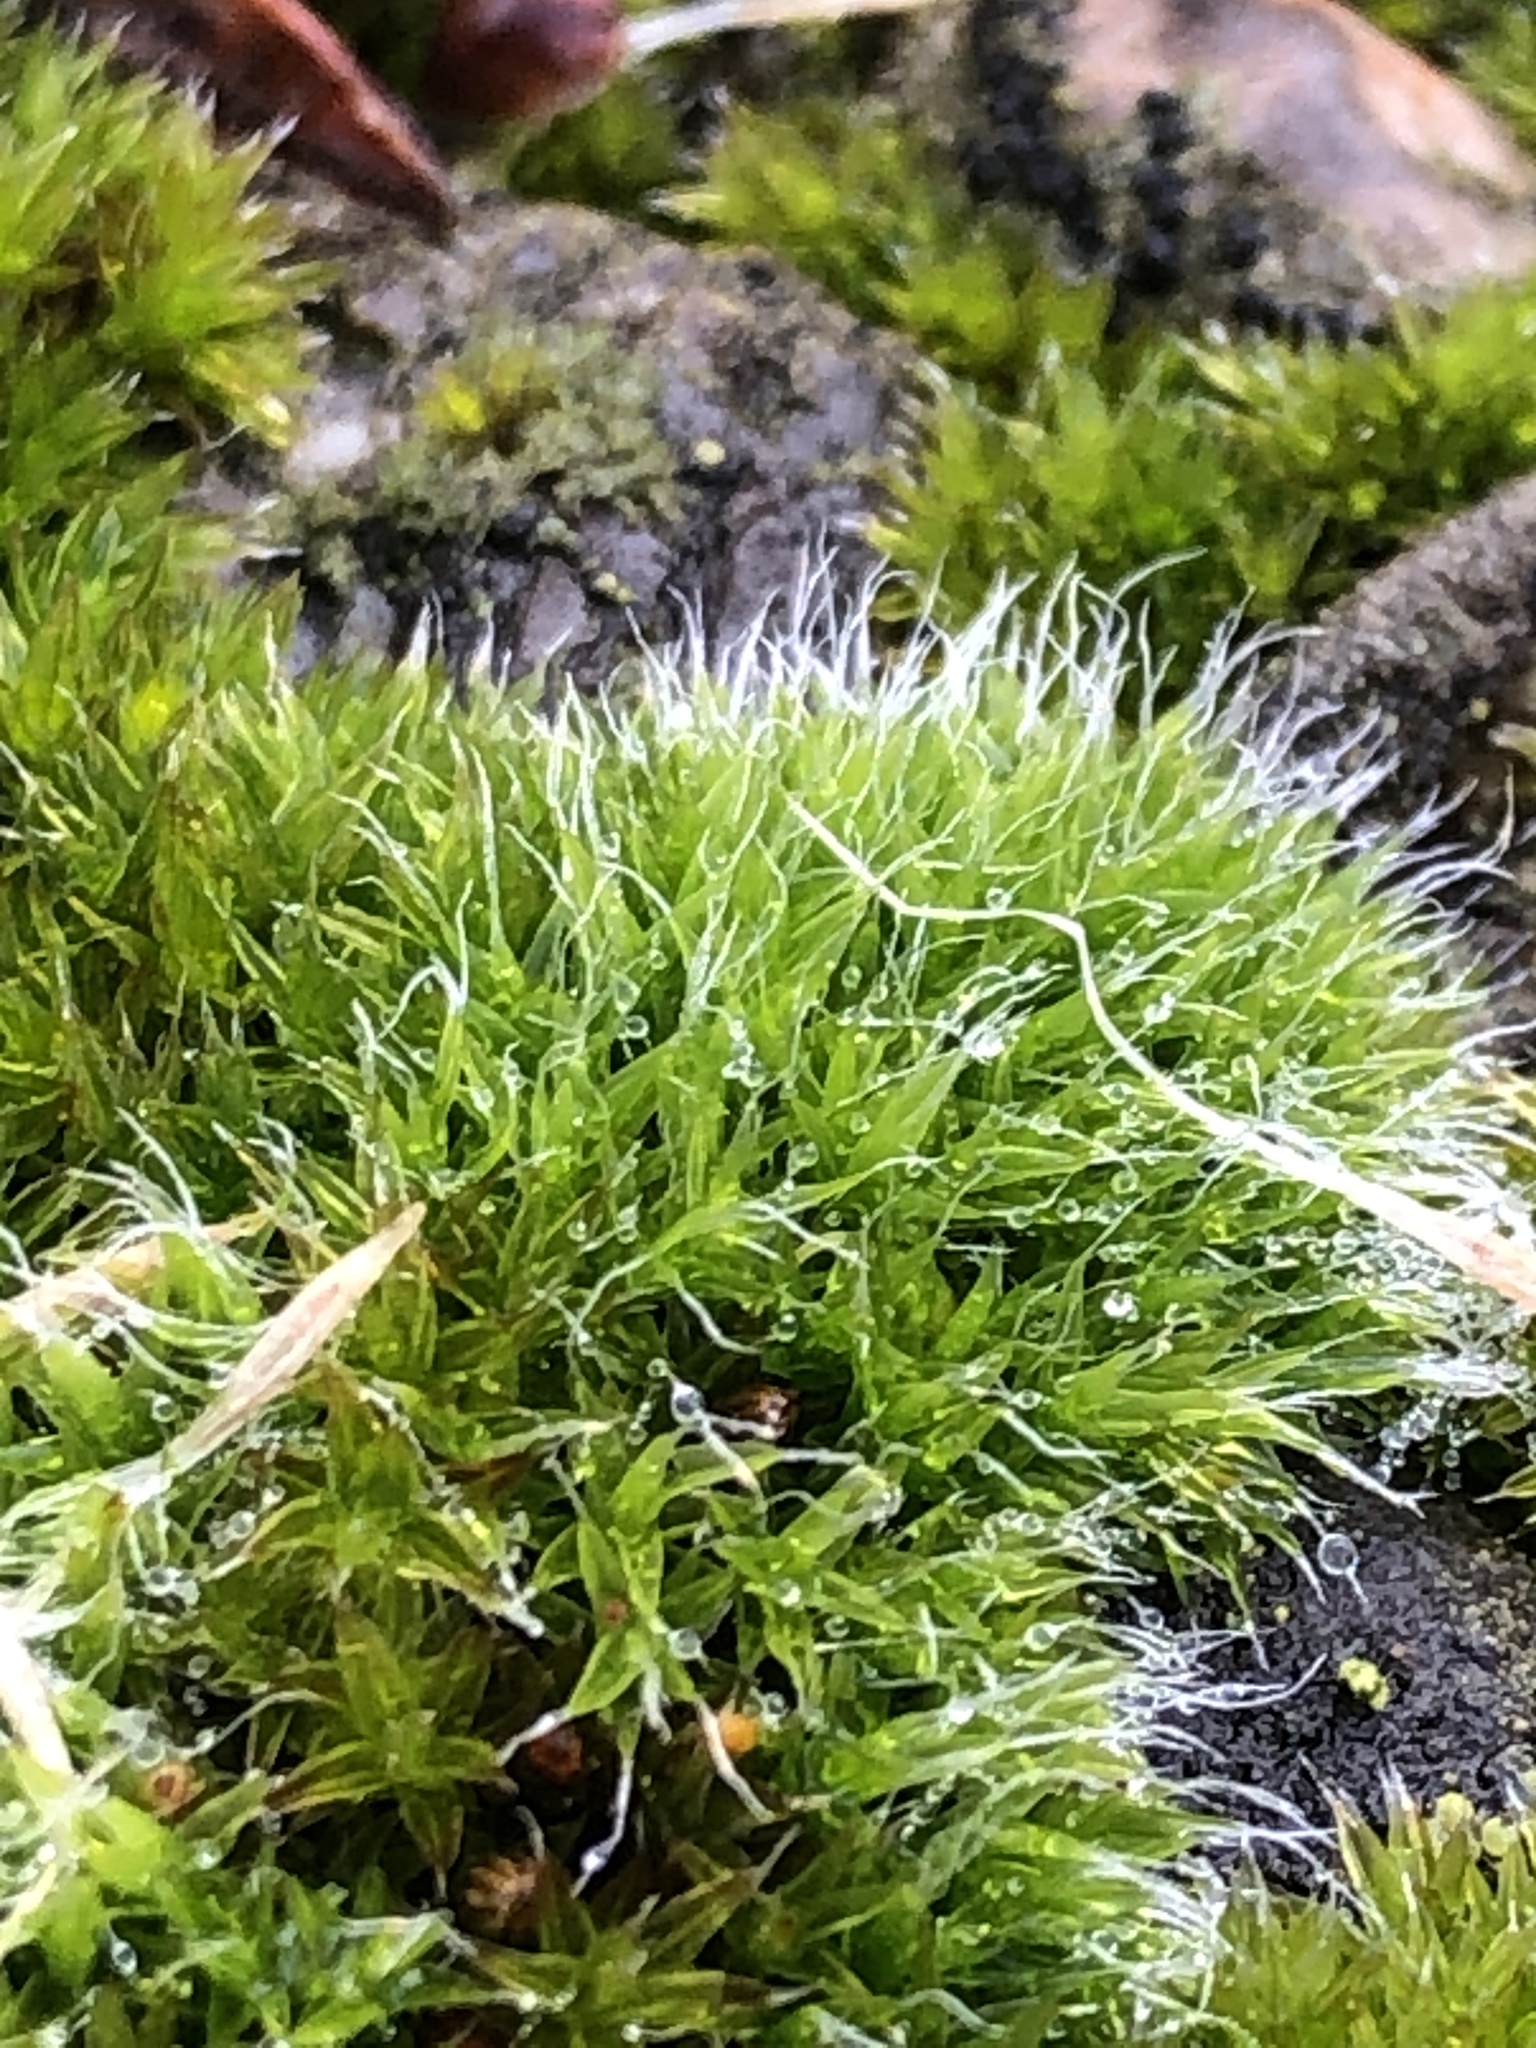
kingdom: Plantae
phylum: Bryophyta
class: Bryopsida
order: Grimmiales
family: Grimmiaceae
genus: Grimmia
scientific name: Grimmia pulvinata
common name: Grey-cushioned grimmia
